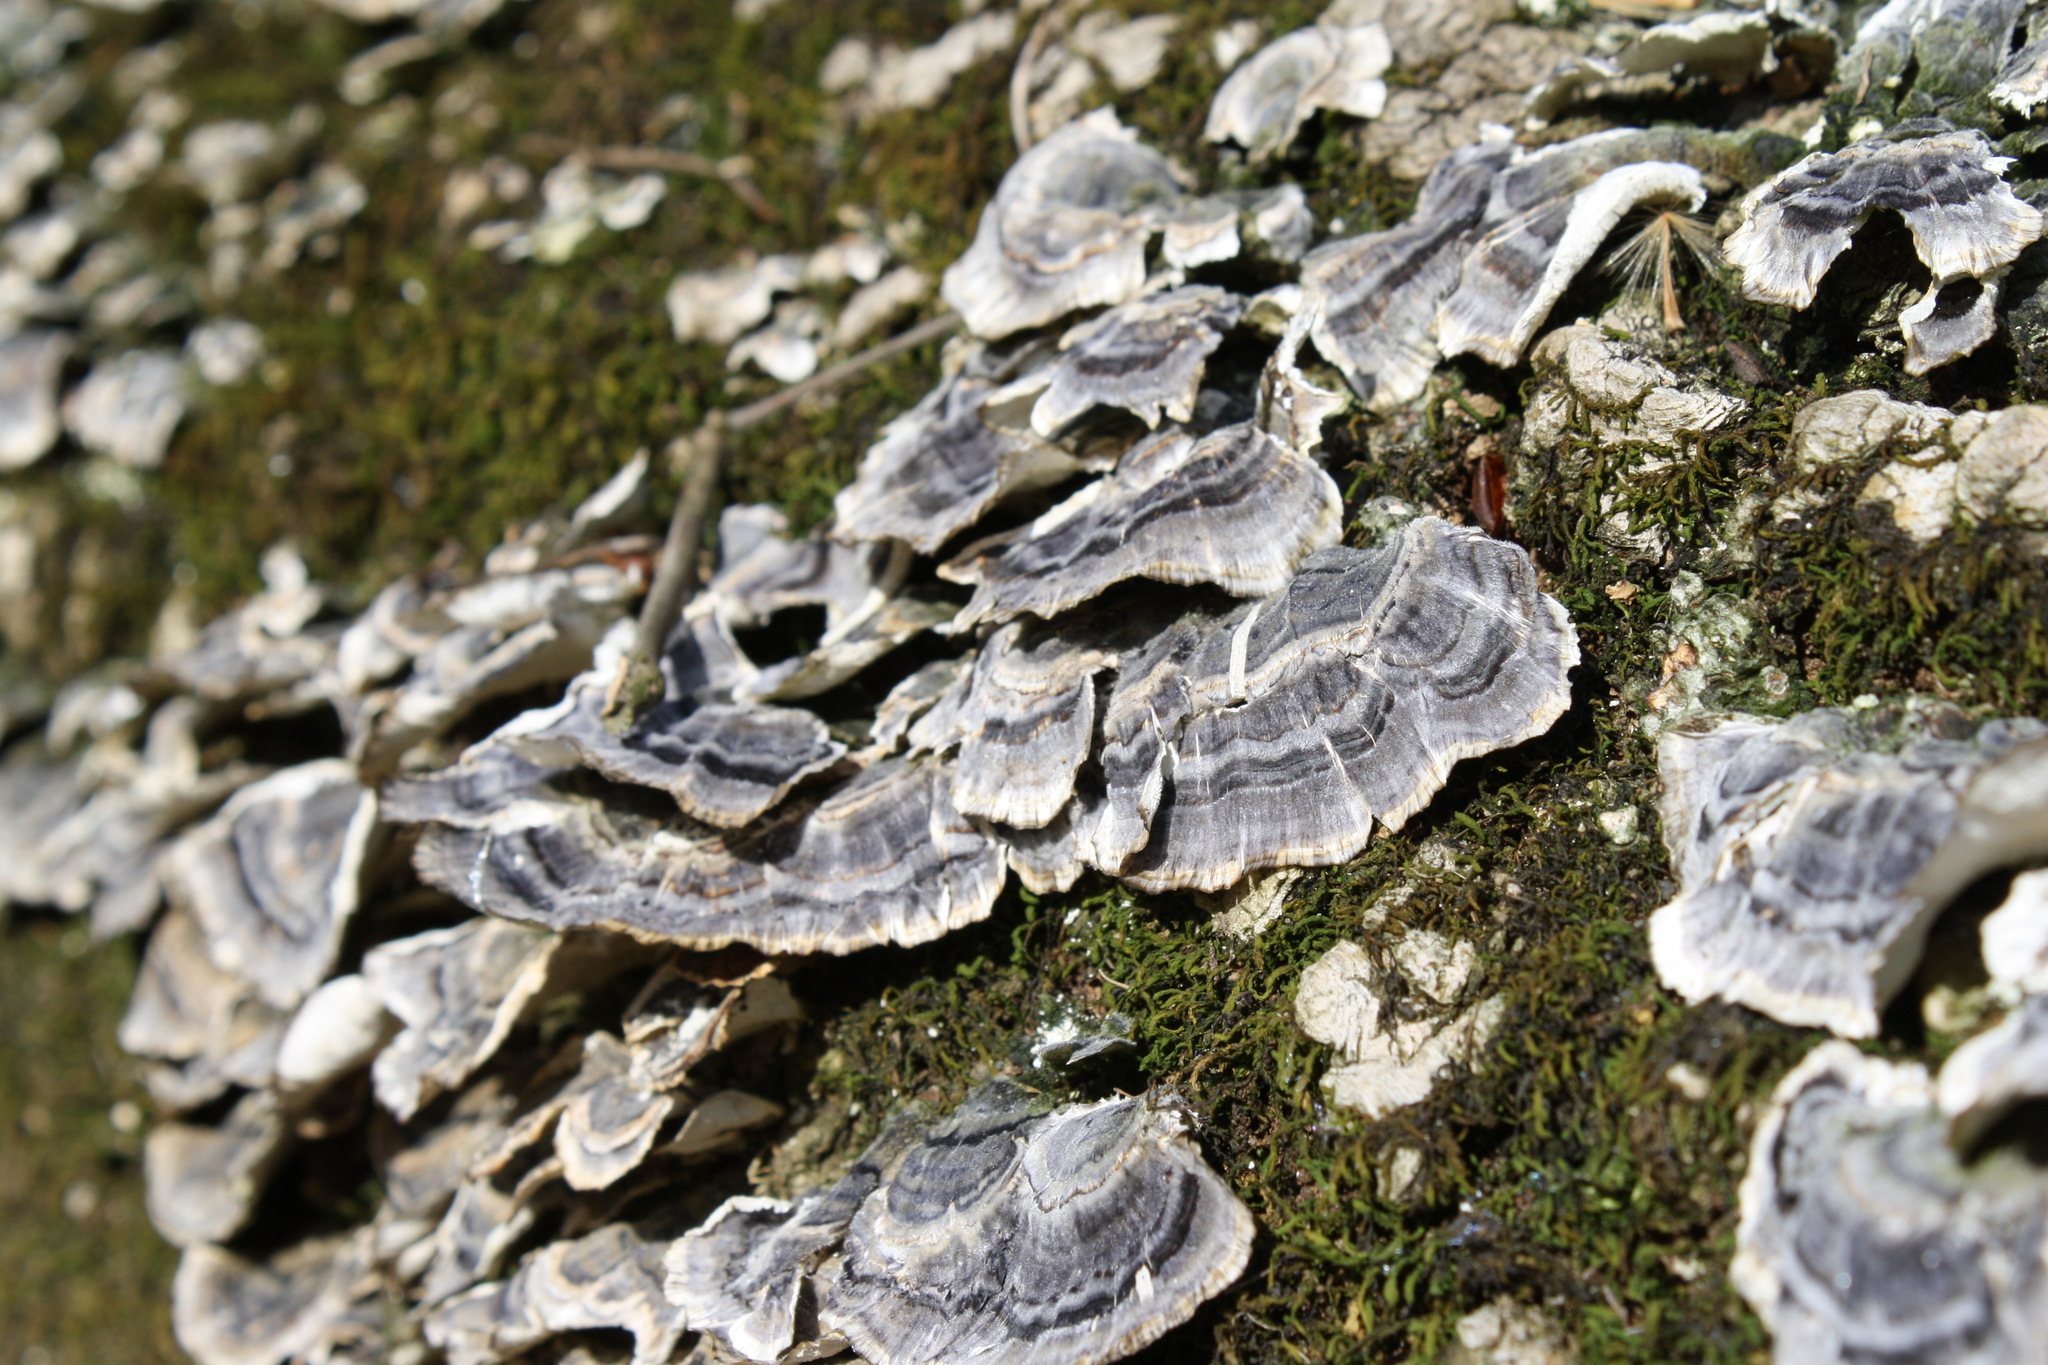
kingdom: Fungi
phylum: Basidiomycota
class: Agaricomycetes
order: Polyporales
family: Polyporaceae
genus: Trametes
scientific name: Trametes versicolor
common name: Turkeytail
